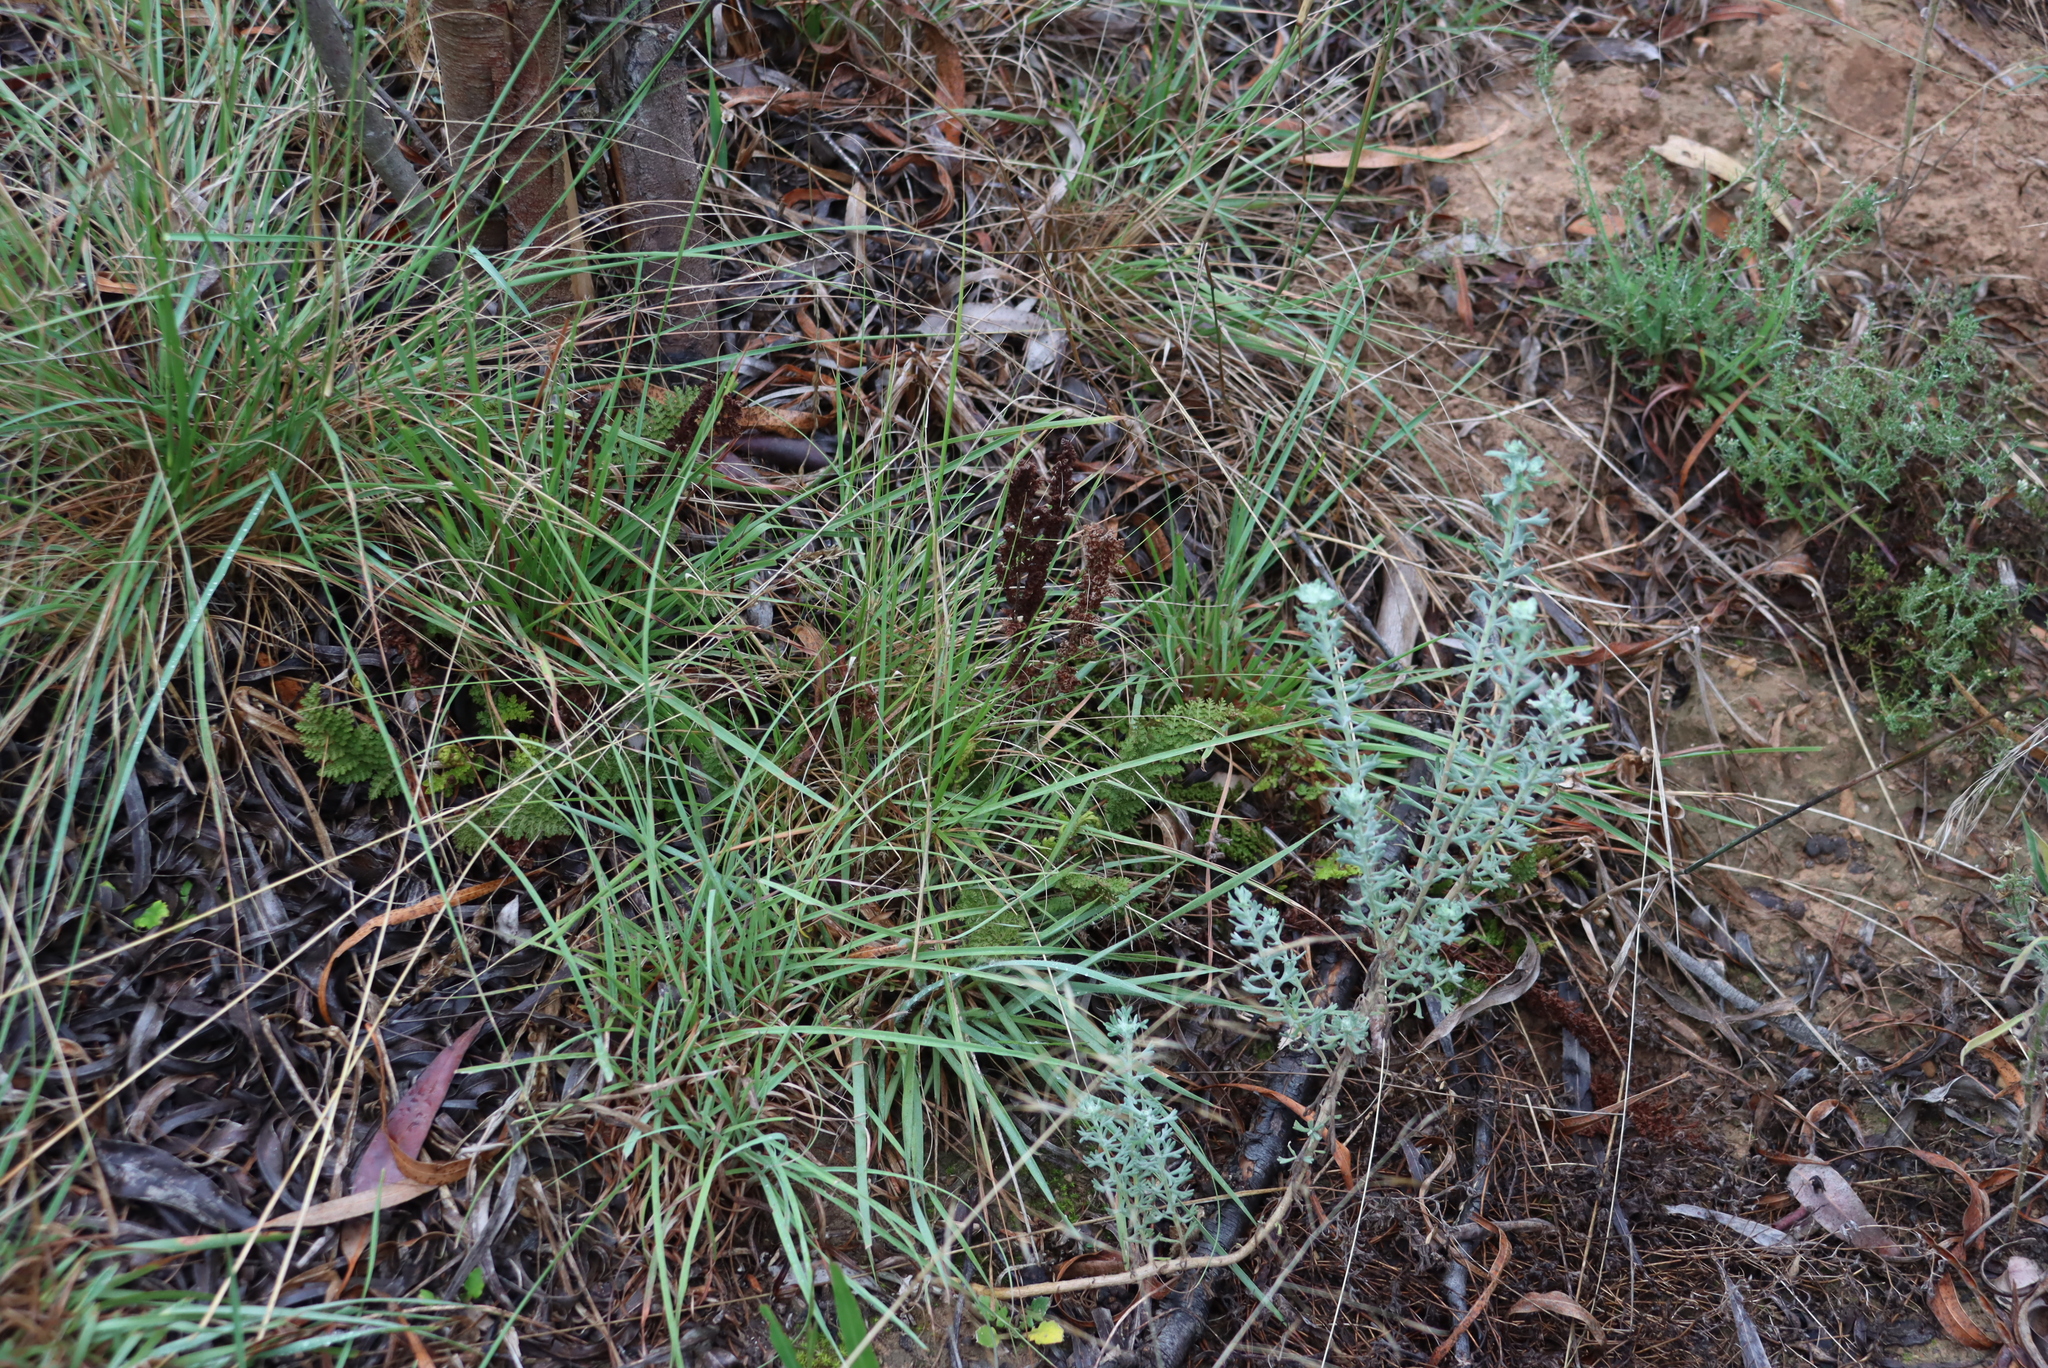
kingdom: Plantae
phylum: Tracheophyta
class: Polypodiopsida
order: Schizaeales
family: Anemiaceae
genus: Anemia
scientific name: Anemia caffrorum
